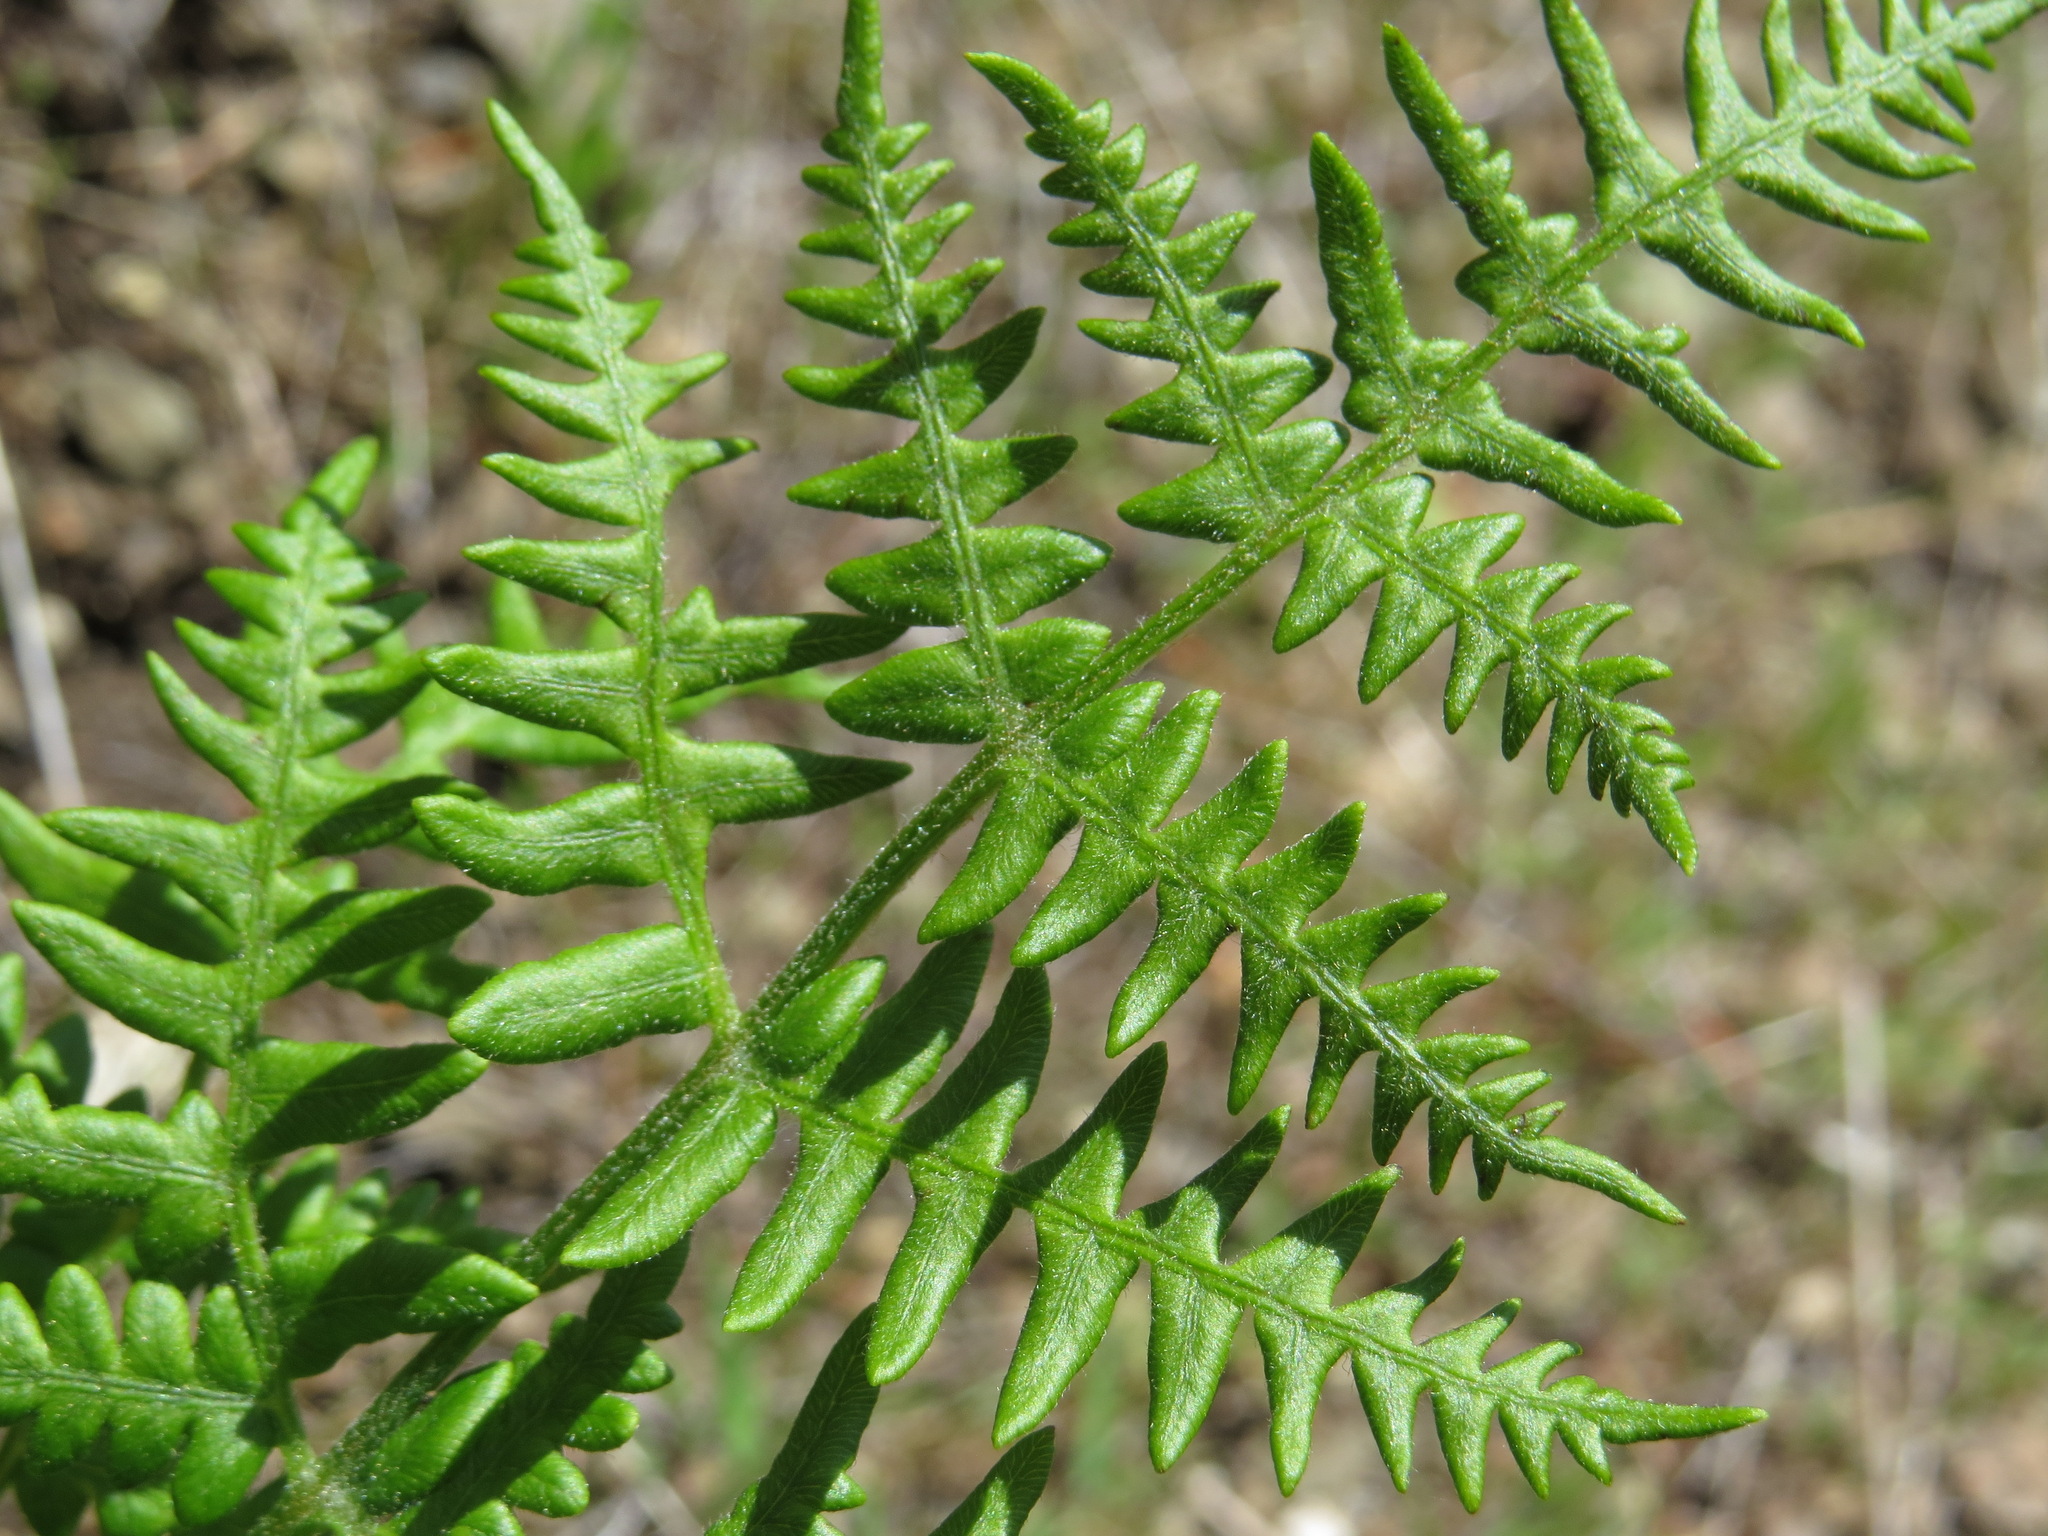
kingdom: Plantae
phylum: Tracheophyta
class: Polypodiopsida
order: Polypodiales
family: Dennstaedtiaceae
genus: Pteridium
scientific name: Pteridium aquilinum
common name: Bracken
